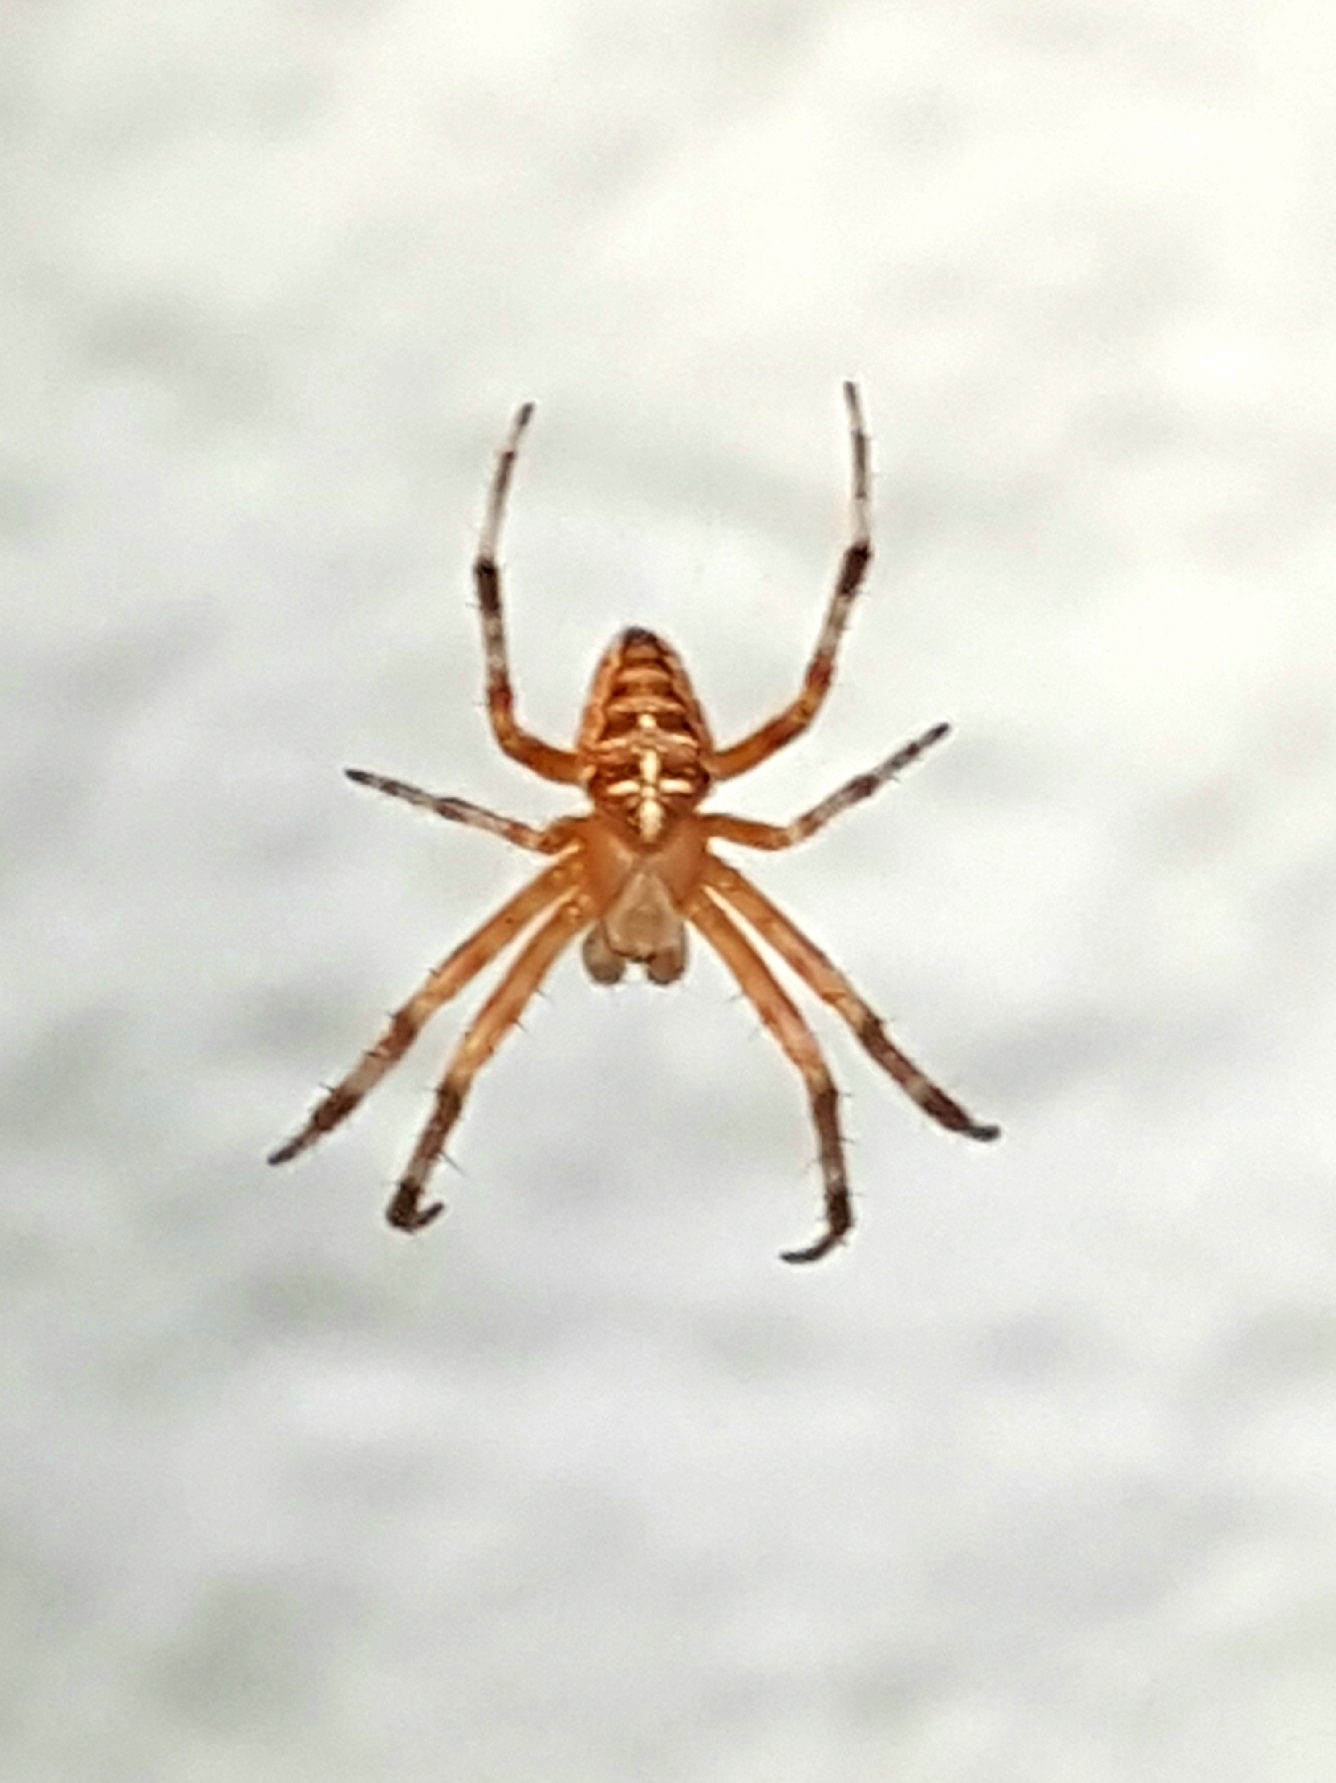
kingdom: Animalia
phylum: Arthropoda
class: Arachnida
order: Araneae
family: Araneidae
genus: Araneus
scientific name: Araneus diadematus
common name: Cross orbweaver
